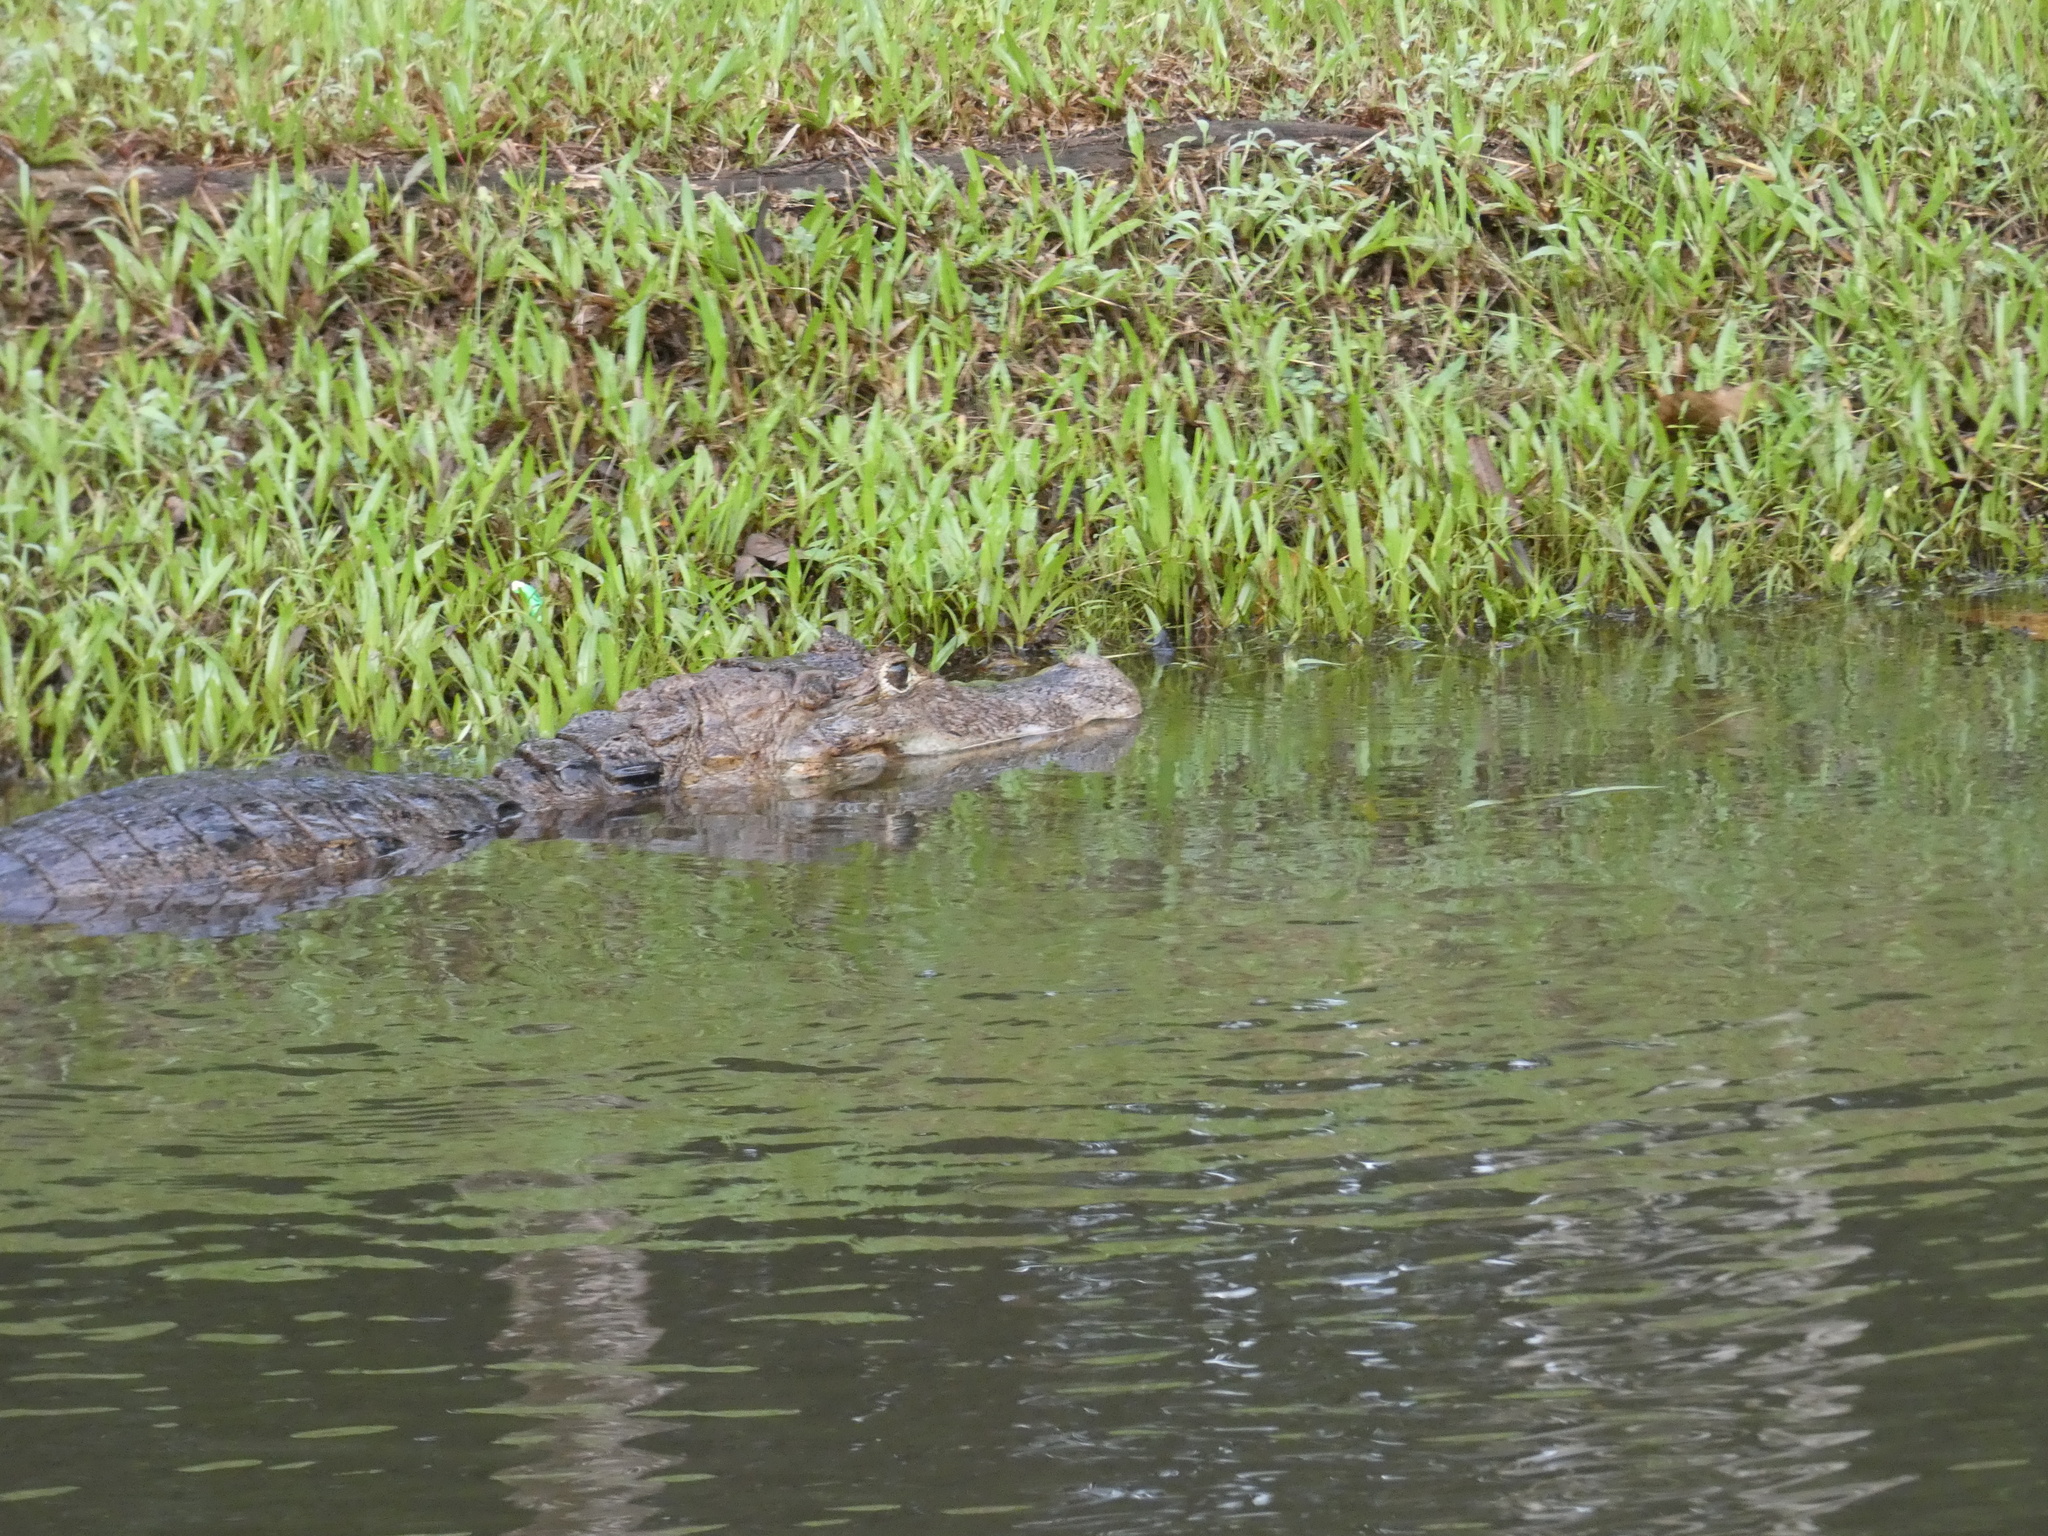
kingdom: Animalia
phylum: Chordata
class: Crocodylia
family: Alligatoridae
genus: Caiman
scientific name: Caiman crocodilus
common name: Common caiman
